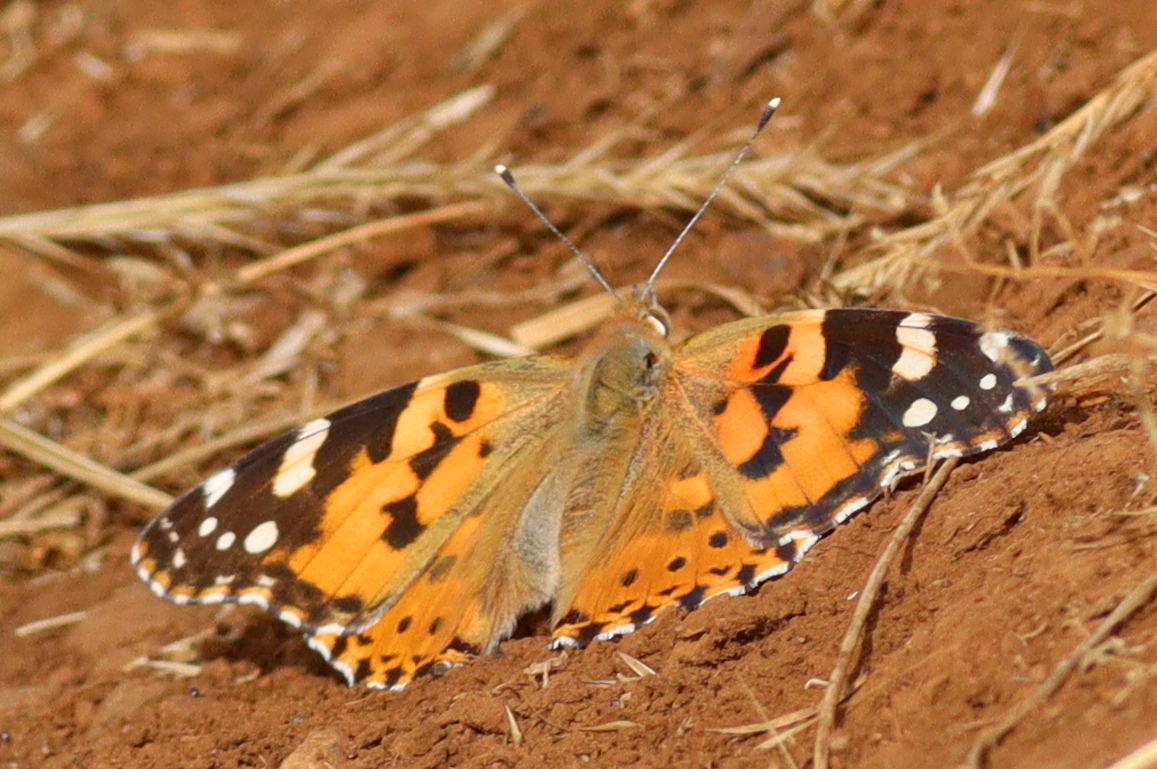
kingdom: Animalia
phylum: Arthropoda
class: Insecta
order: Lepidoptera
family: Nymphalidae
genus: Vanessa
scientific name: Vanessa cardui
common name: Painted lady
